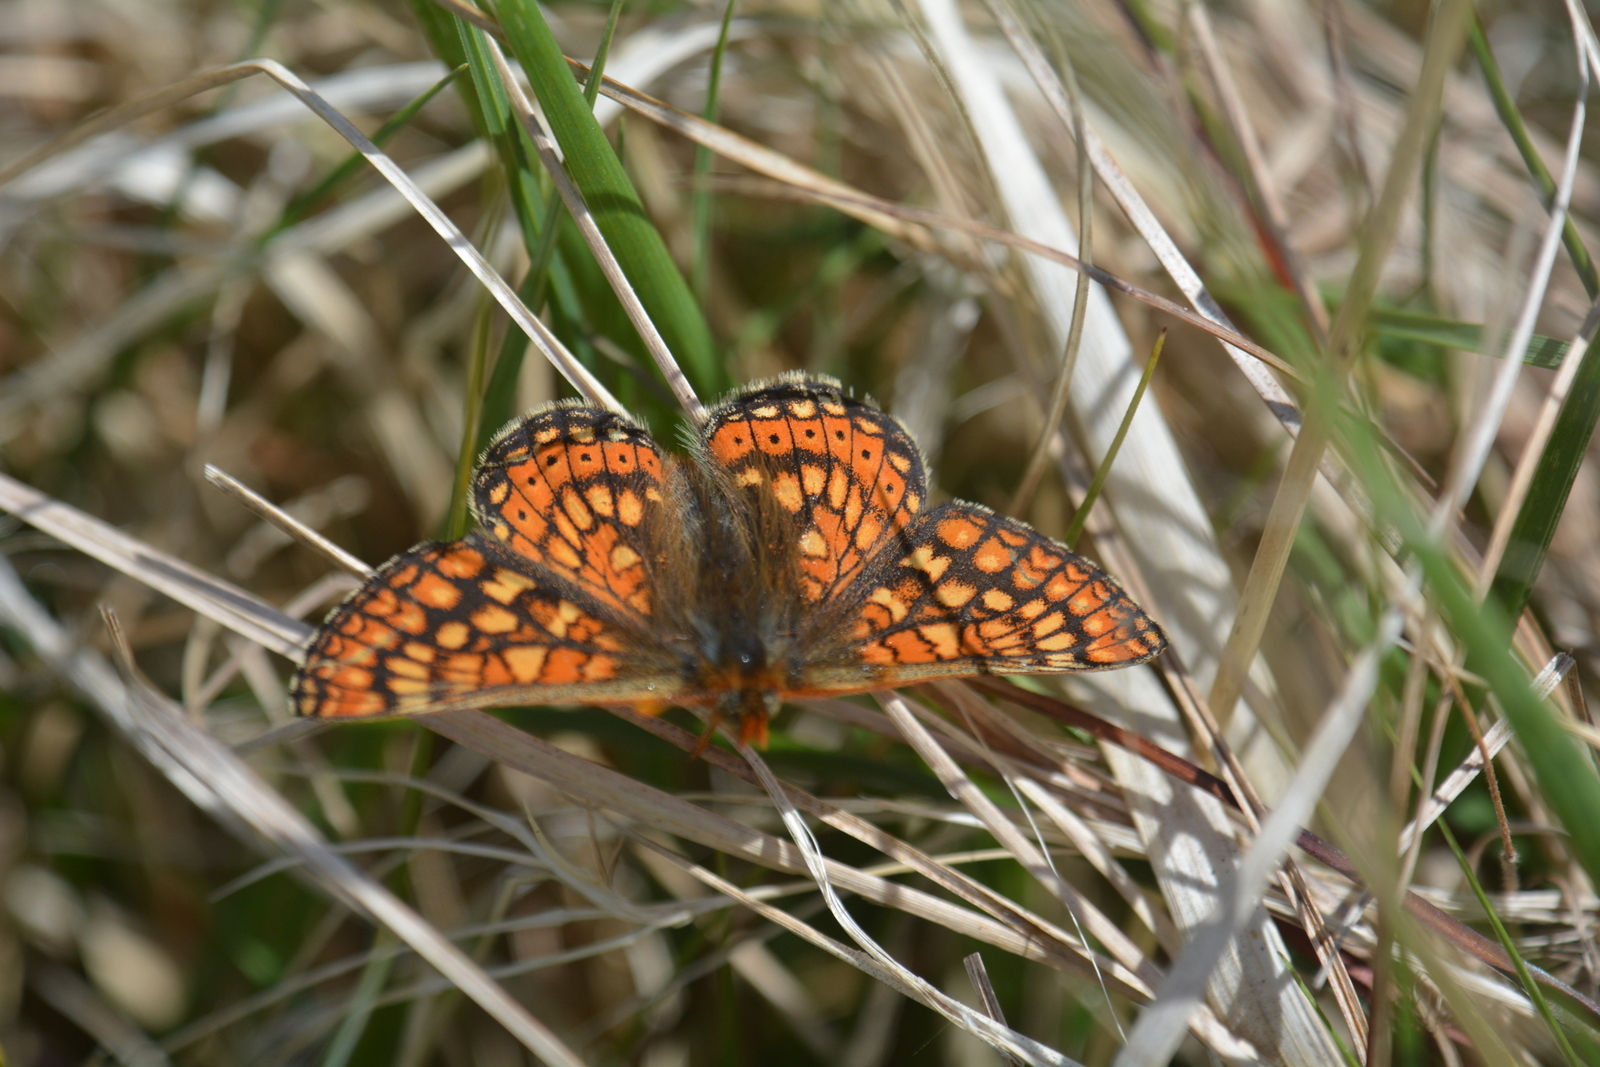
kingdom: Animalia
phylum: Arthropoda
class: Insecta
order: Lepidoptera
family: Nymphalidae
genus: Euphydryas
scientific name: Euphydryas aurinia
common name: Marsh fritillary
